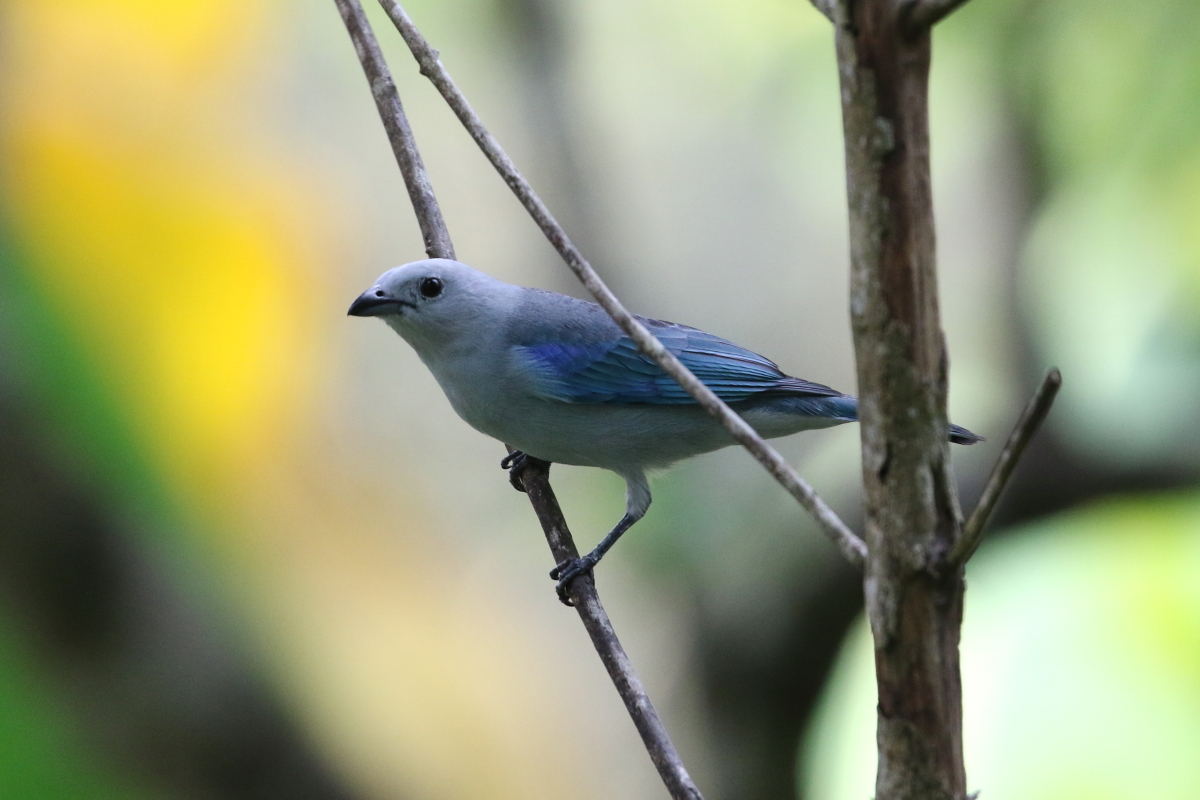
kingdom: Animalia
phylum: Chordata
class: Aves
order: Passeriformes
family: Thraupidae
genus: Thraupis
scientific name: Thraupis episcopus
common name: Blue-grey tanager
